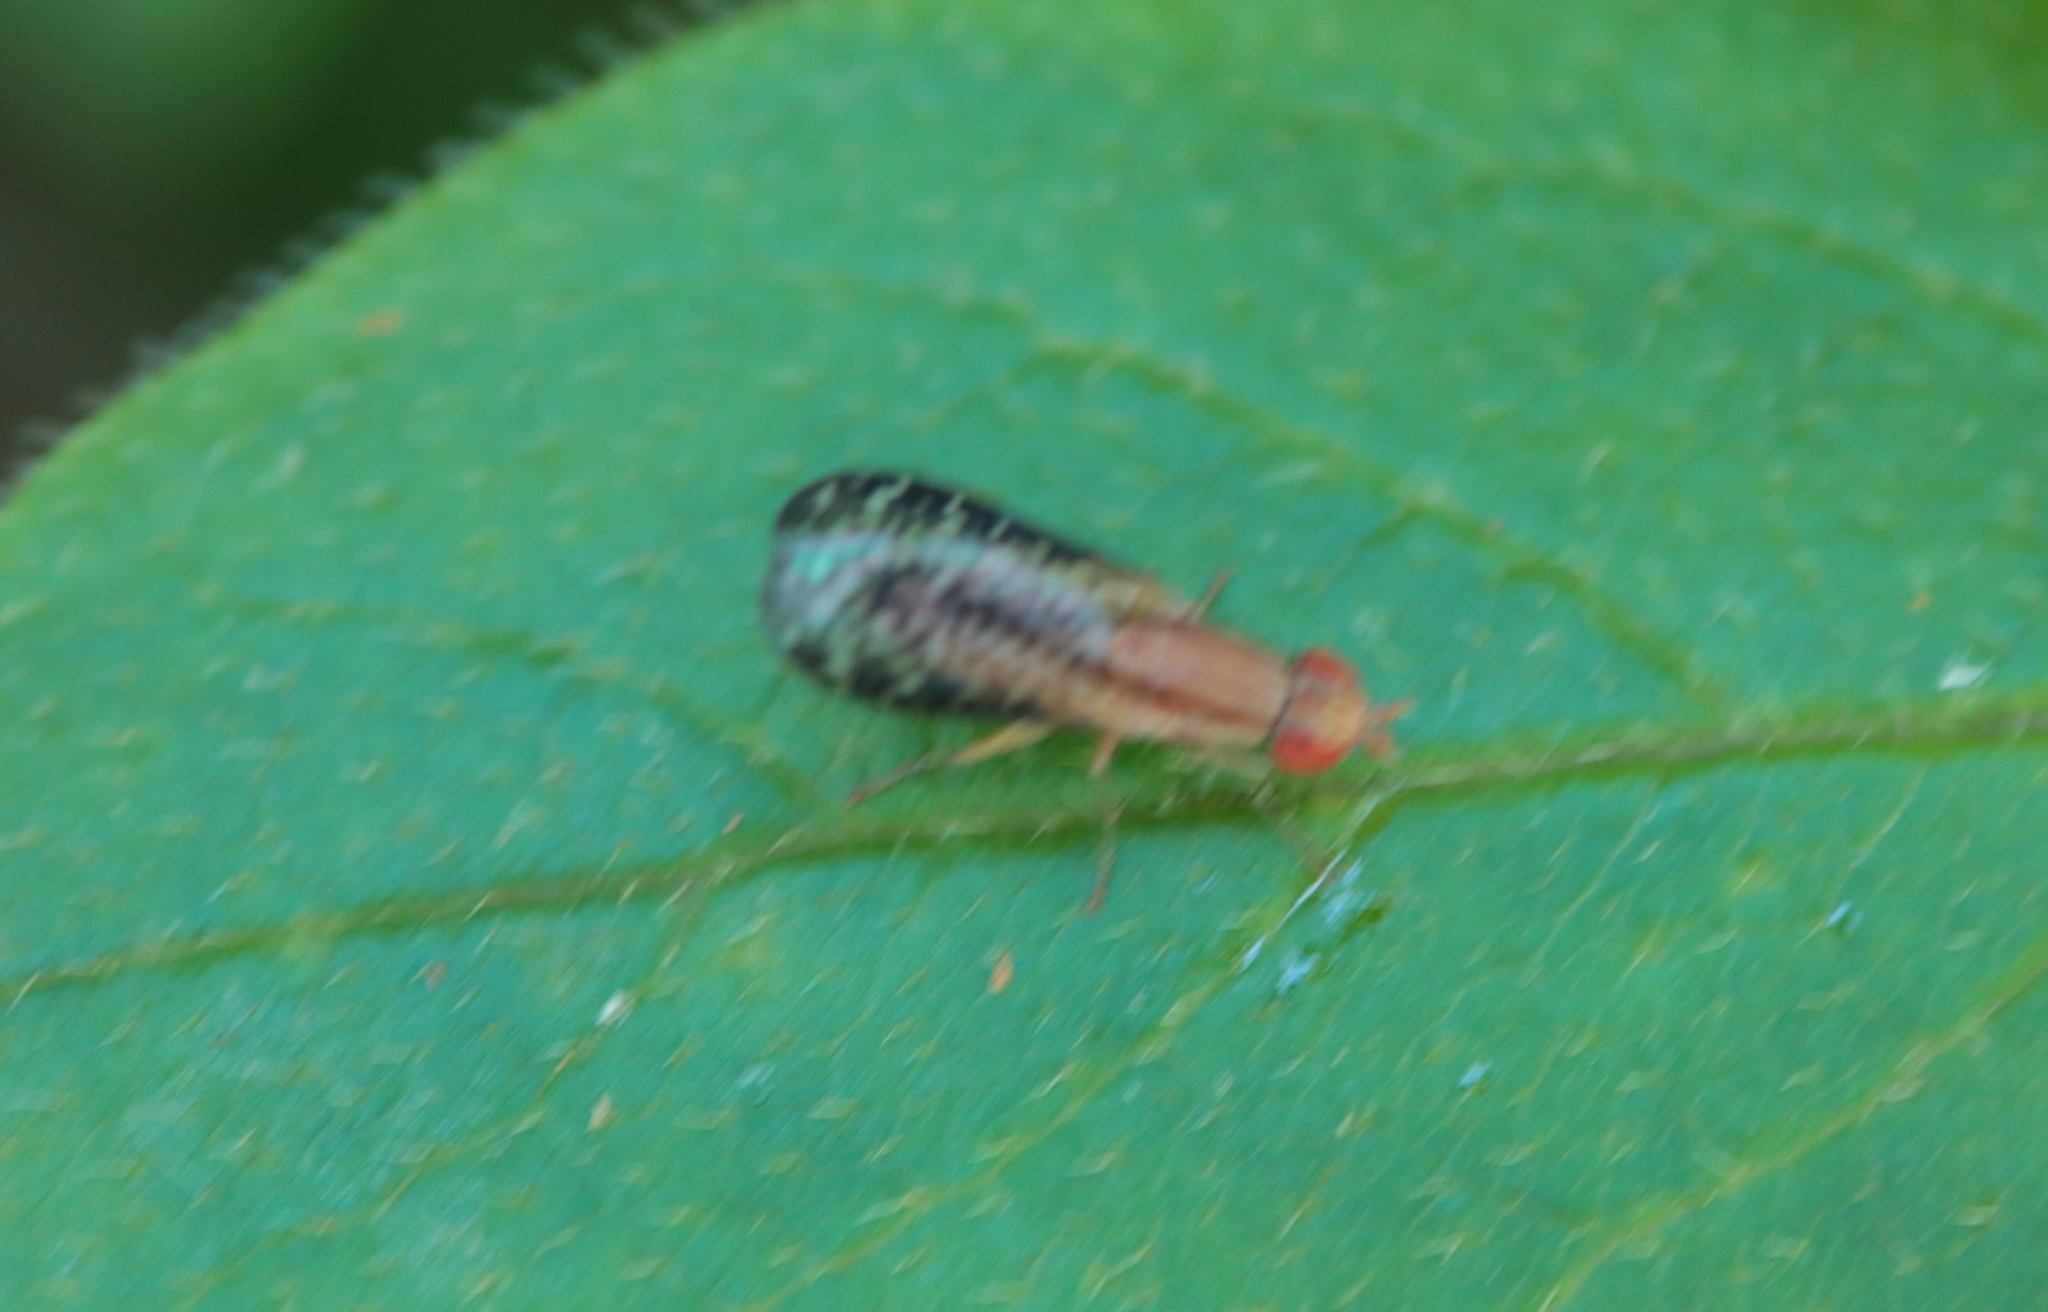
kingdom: Animalia
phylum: Arthropoda
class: Insecta
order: Diptera
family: Sciomyzidae
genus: Trypetoptera
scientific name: Trypetoptera canadensis
